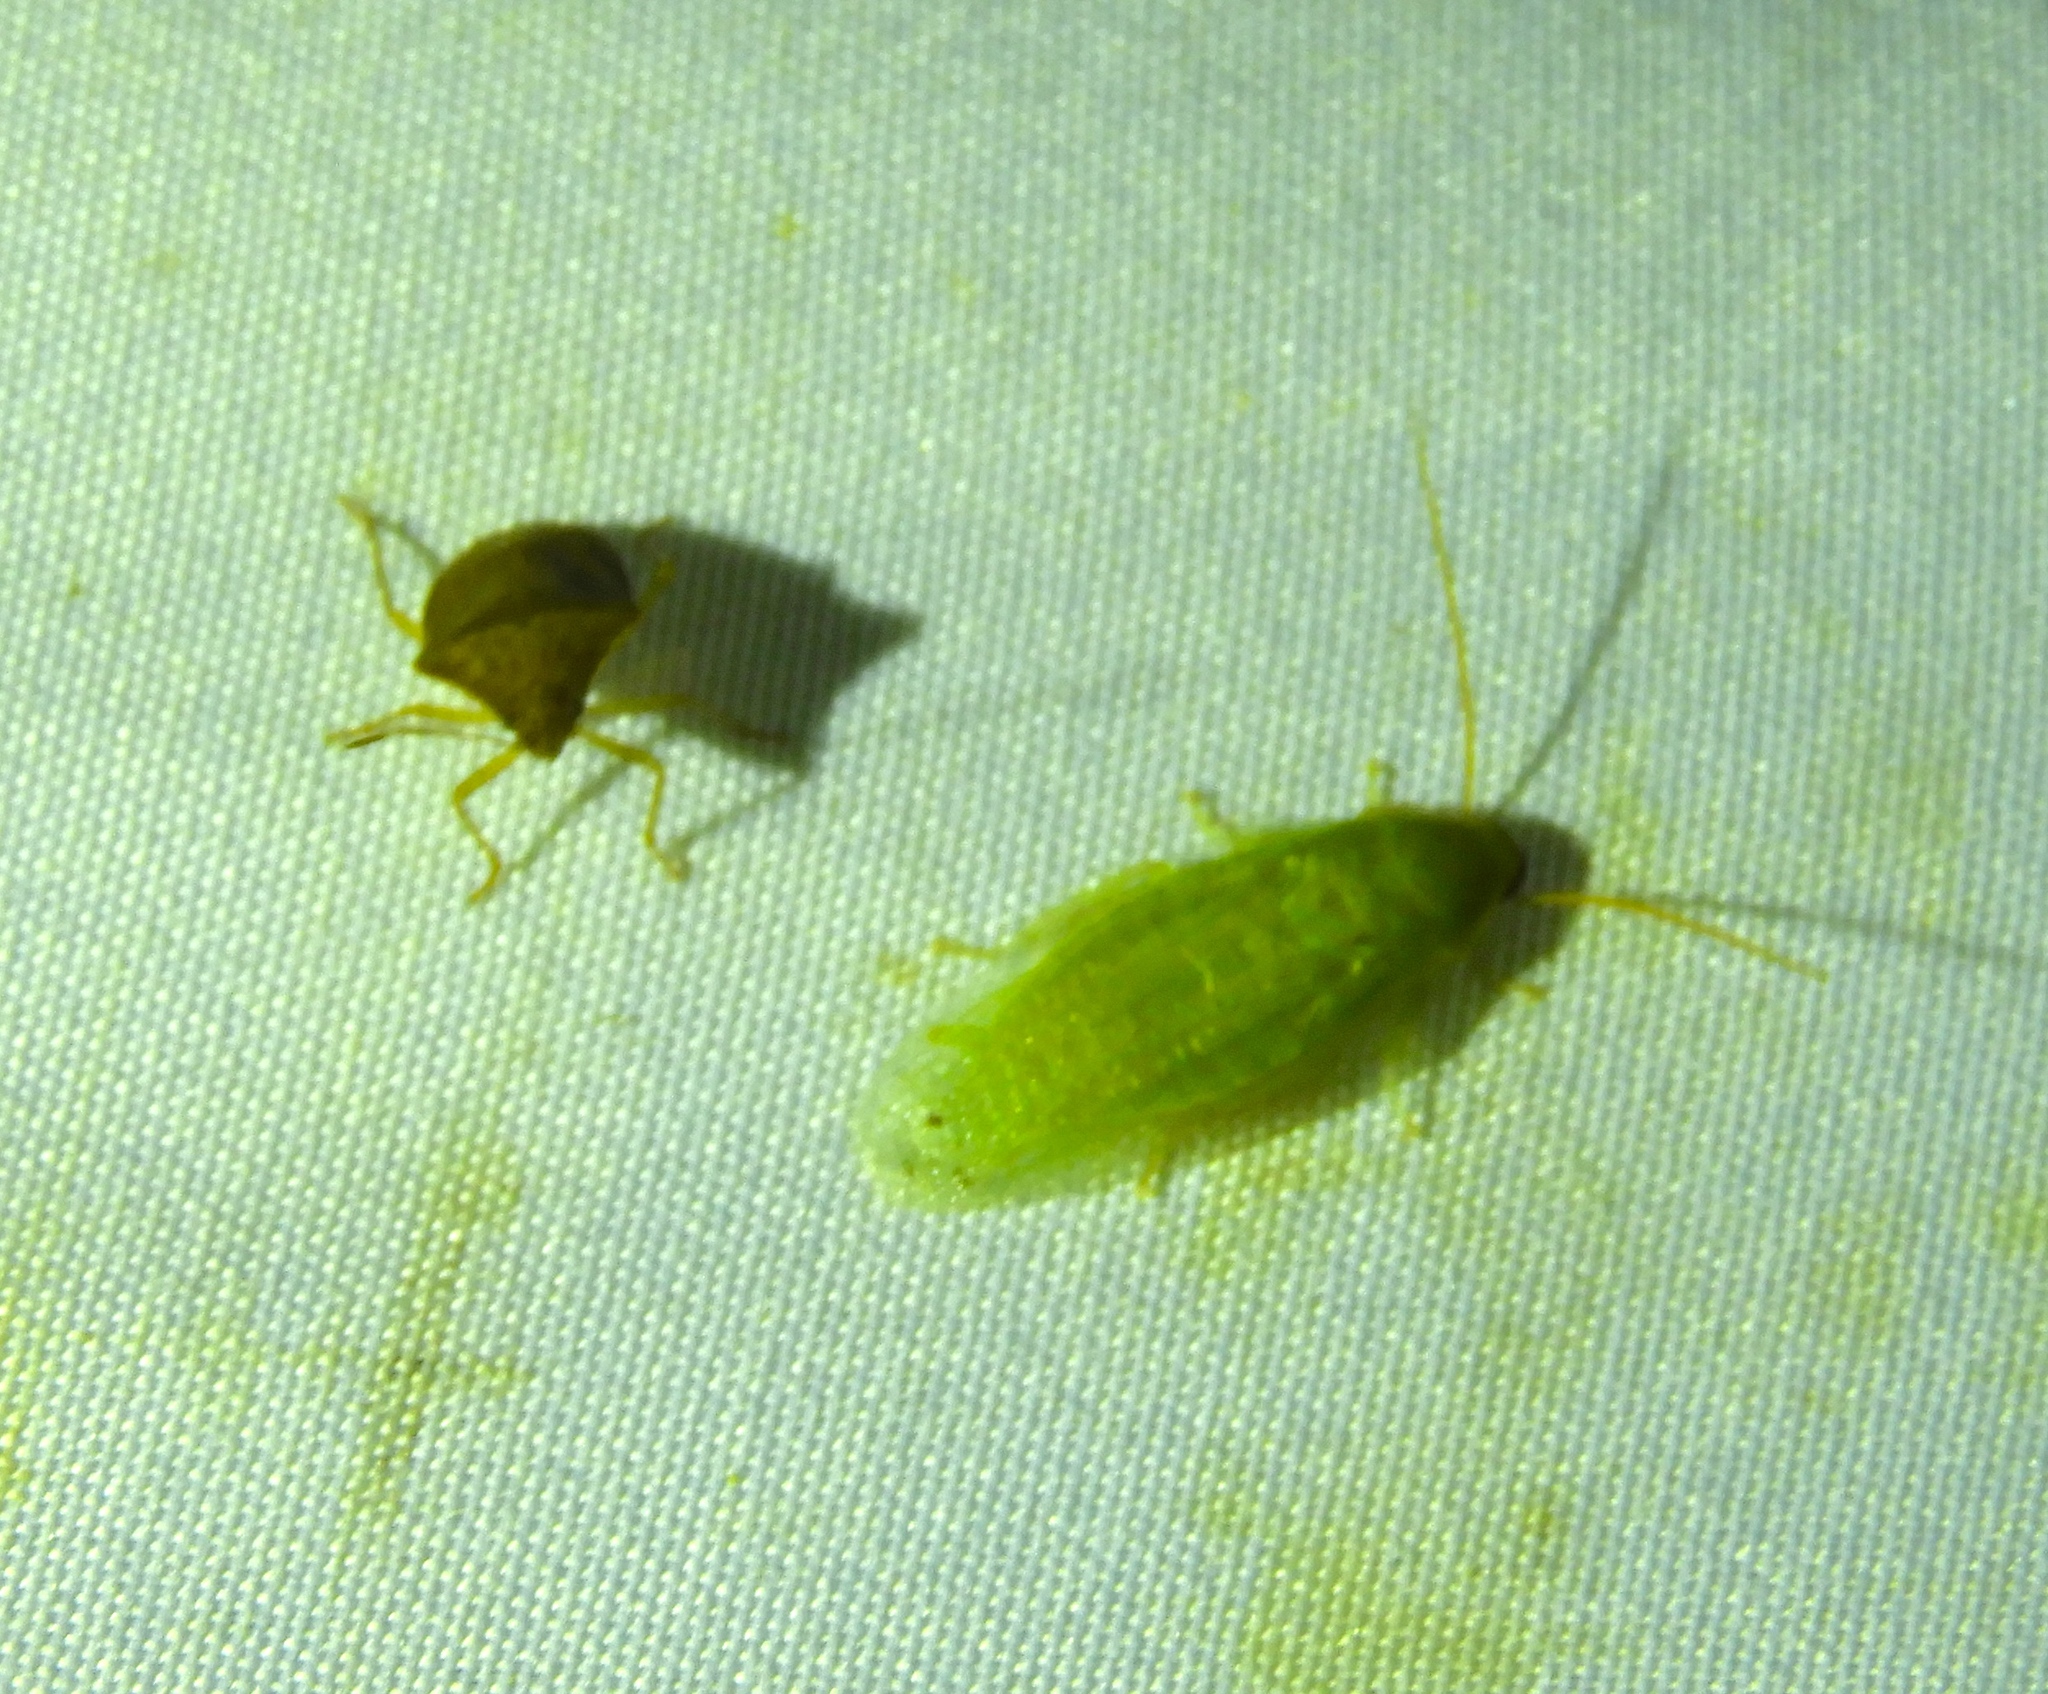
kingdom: Animalia
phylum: Arthropoda
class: Insecta
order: Blattodea
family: Blaberidae
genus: Panchlora
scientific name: Panchlora nivea
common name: Cuban cockroach
